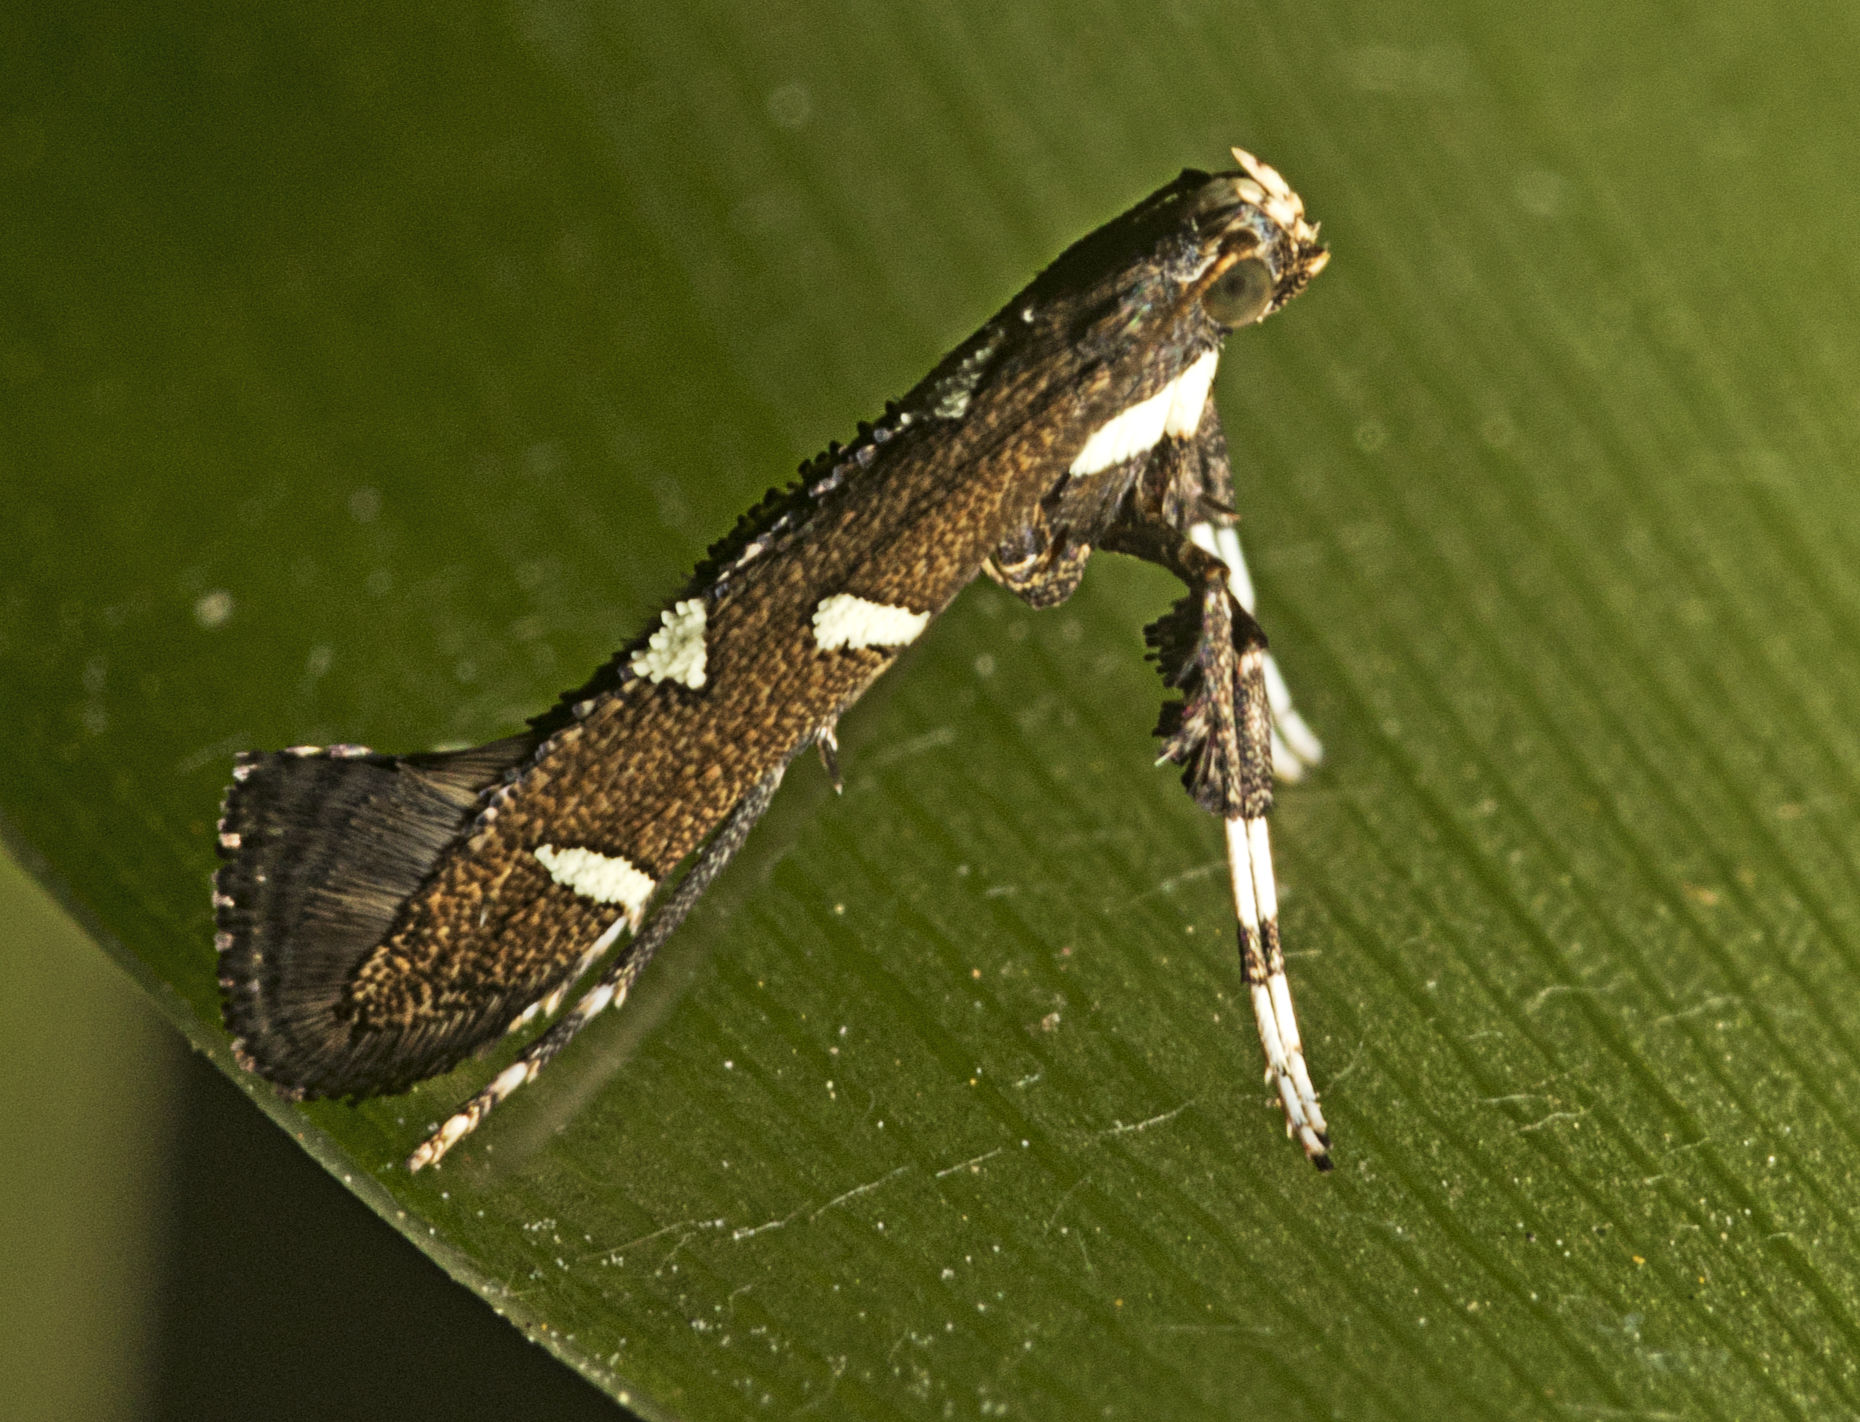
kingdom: Animalia
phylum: Arthropoda
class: Insecta
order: Lepidoptera
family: Gracillariidae
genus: Caloptilia
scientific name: Caloptilia adelosema
